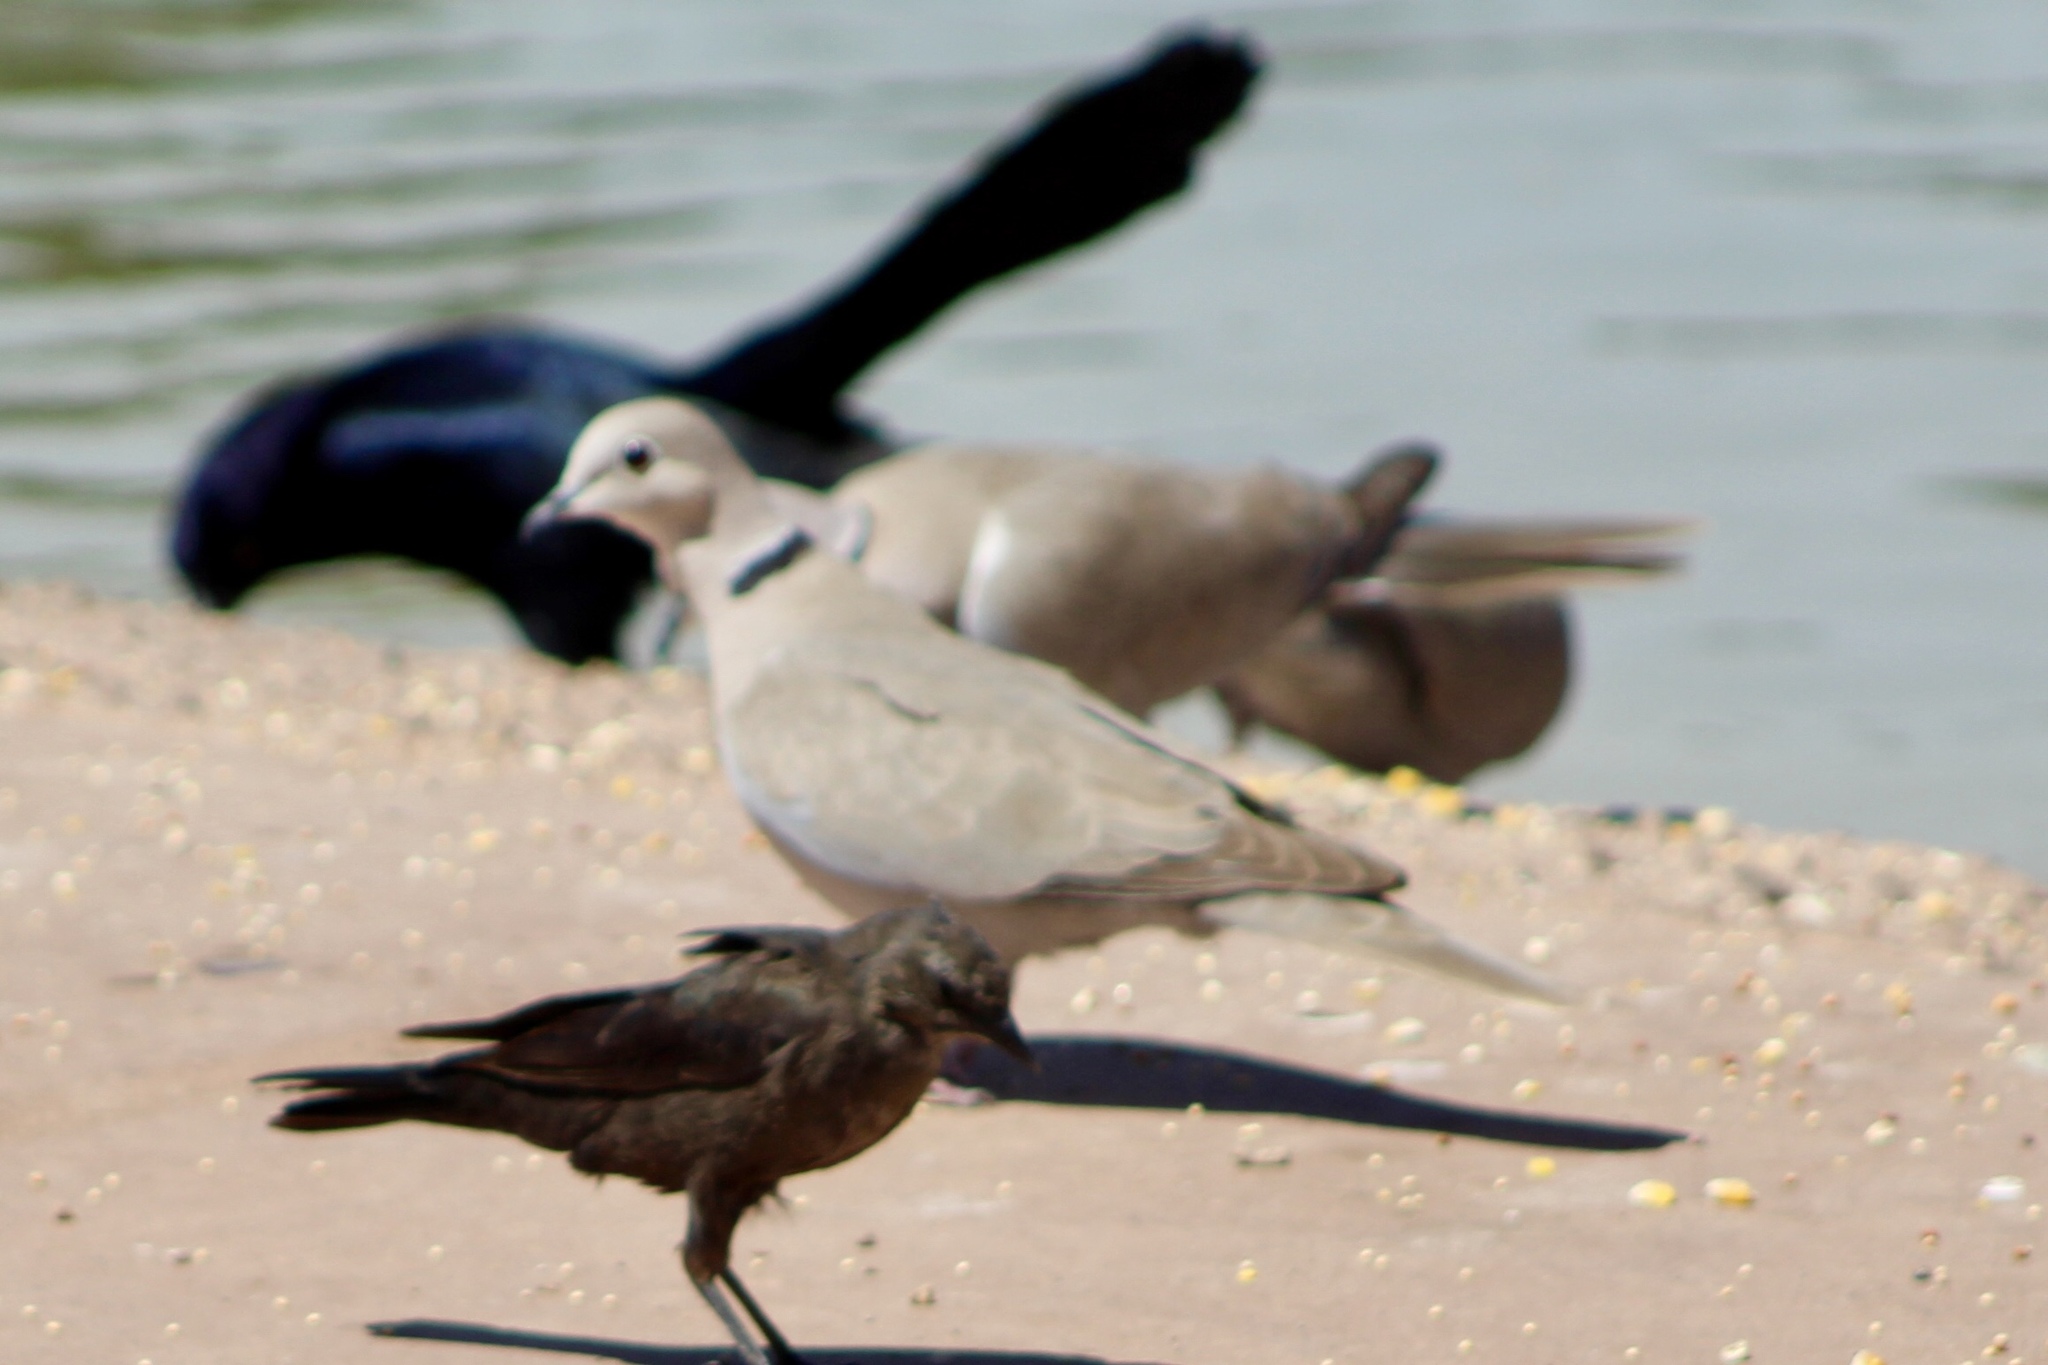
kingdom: Animalia
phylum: Chordata
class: Aves
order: Columbiformes
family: Columbidae
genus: Streptopelia
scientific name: Streptopelia decaocto
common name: Eurasian collared dove
